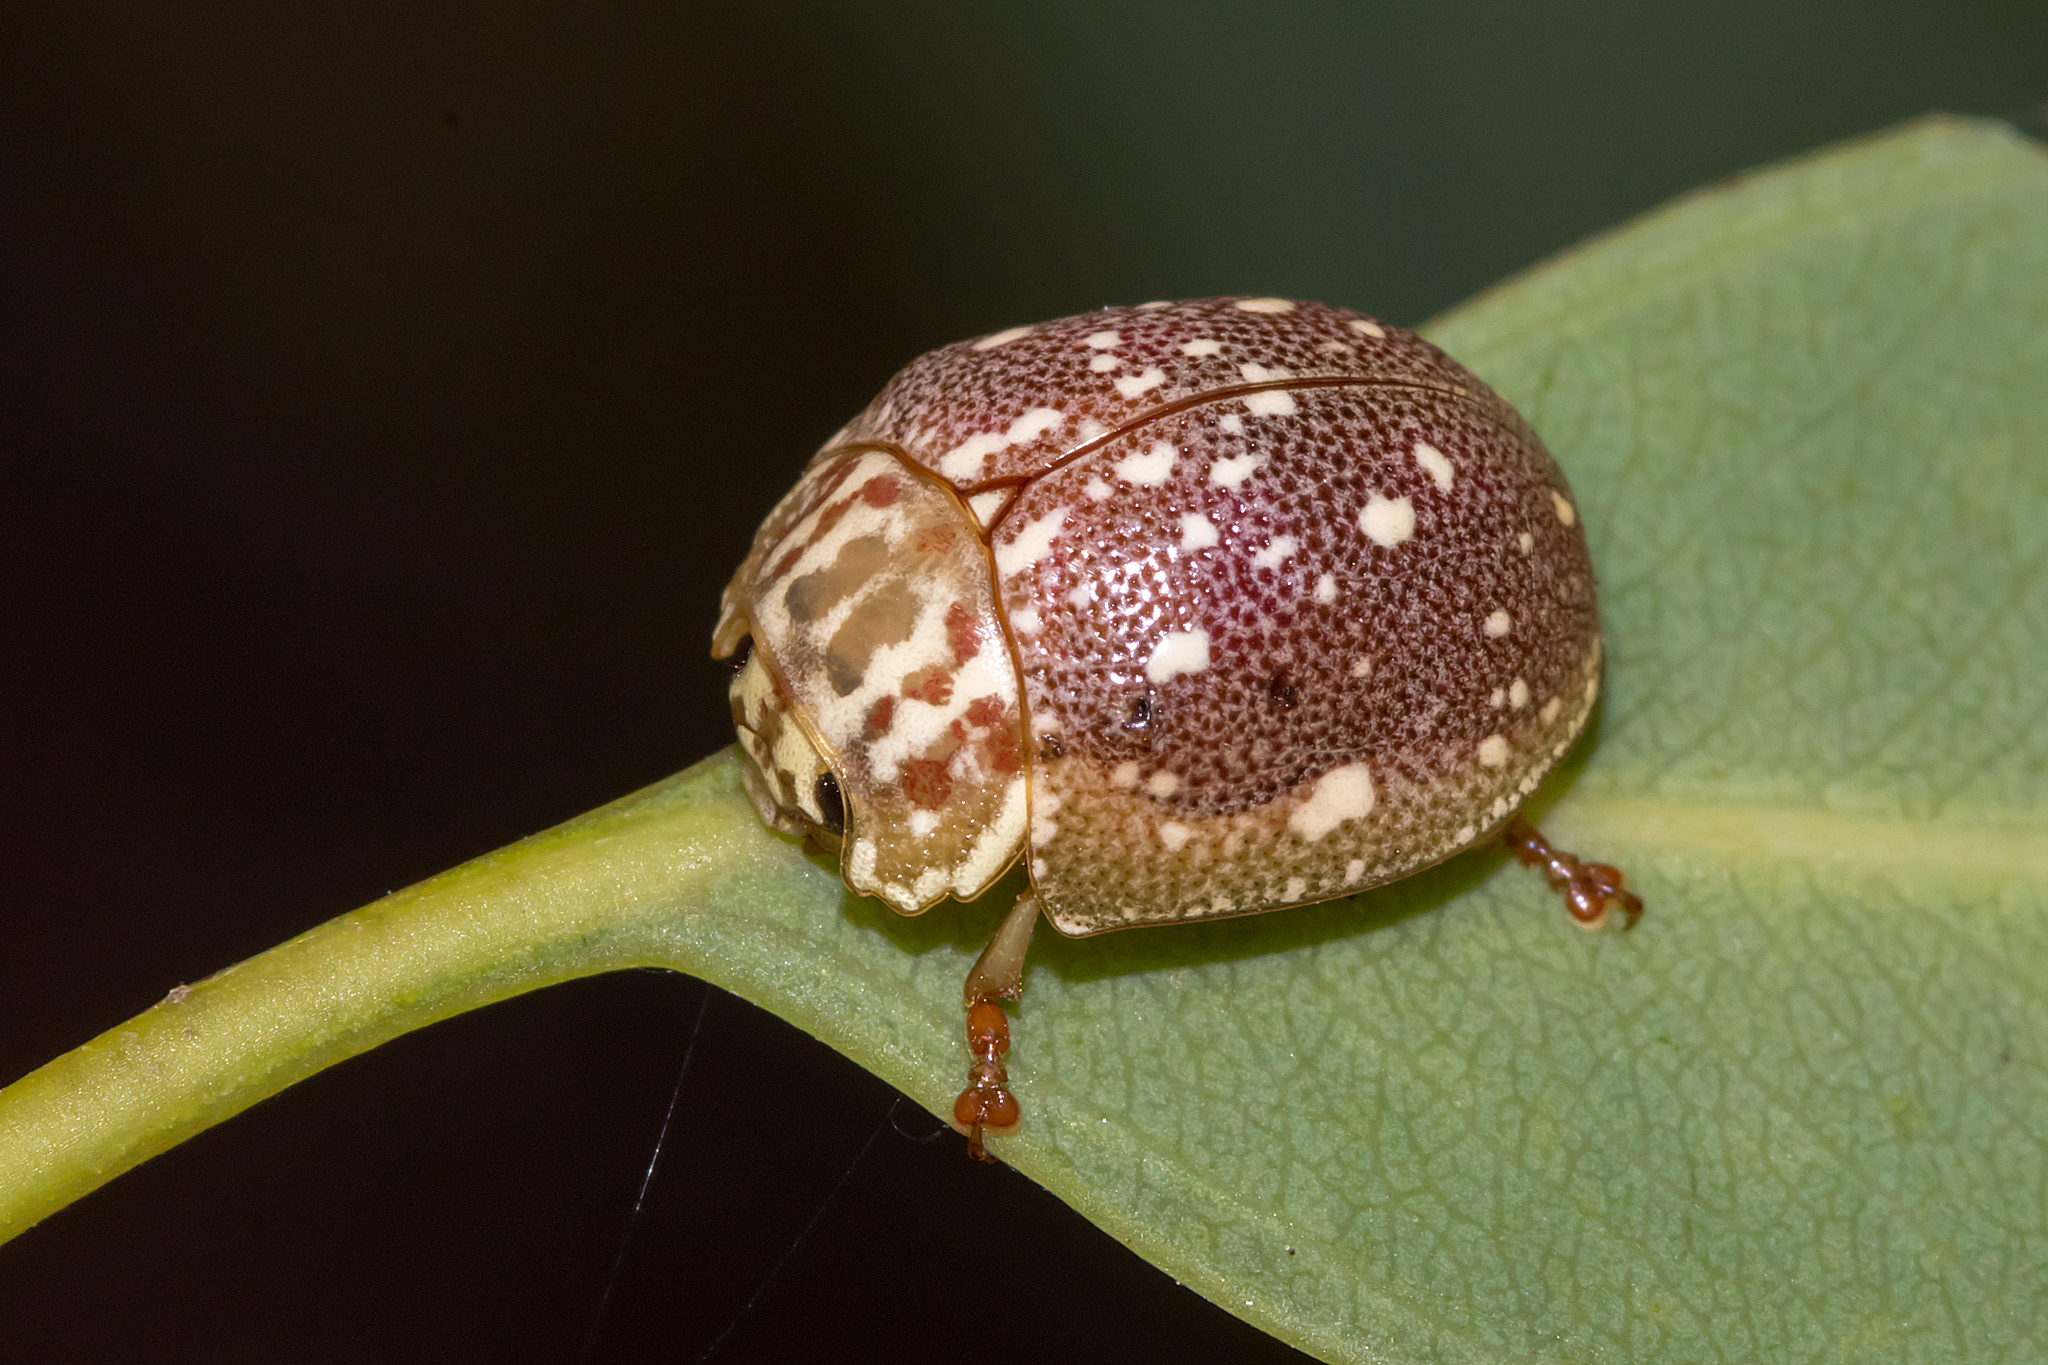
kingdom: Animalia
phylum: Arthropoda
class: Insecta
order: Coleoptera
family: Chrysomelidae
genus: Paropsis
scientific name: Paropsis
